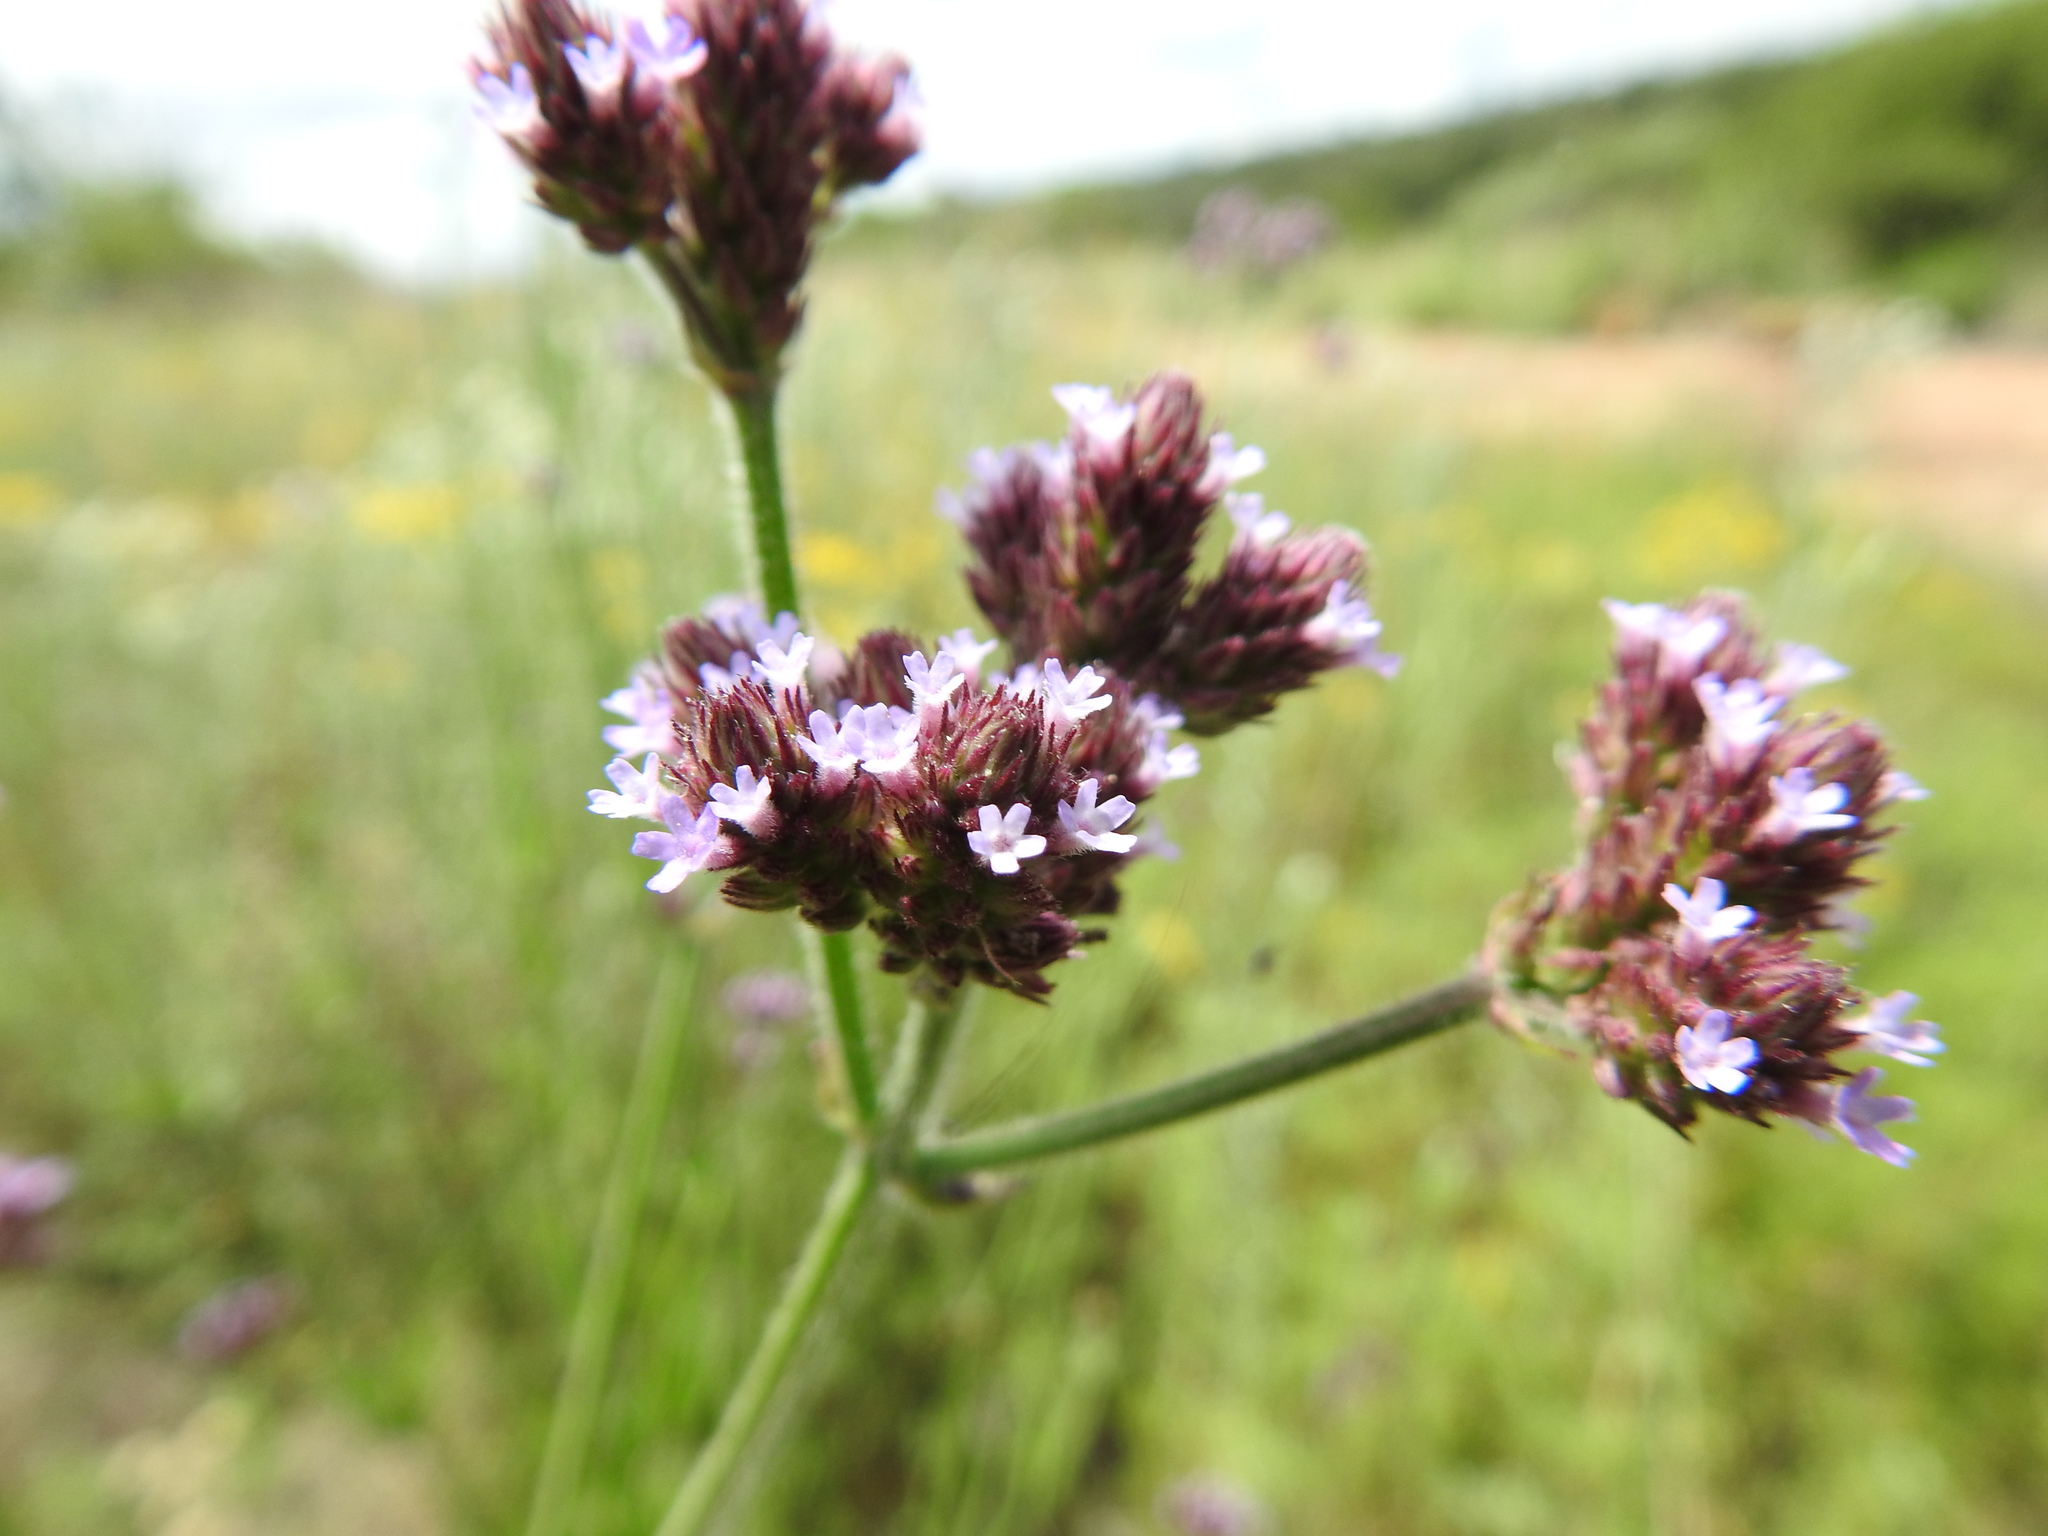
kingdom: Plantae
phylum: Tracheophyta
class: Magnoliopsida
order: Lamiales
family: Verbenaceae
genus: Verbena
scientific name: Verbena bonariensis
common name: Purpletop vervain
